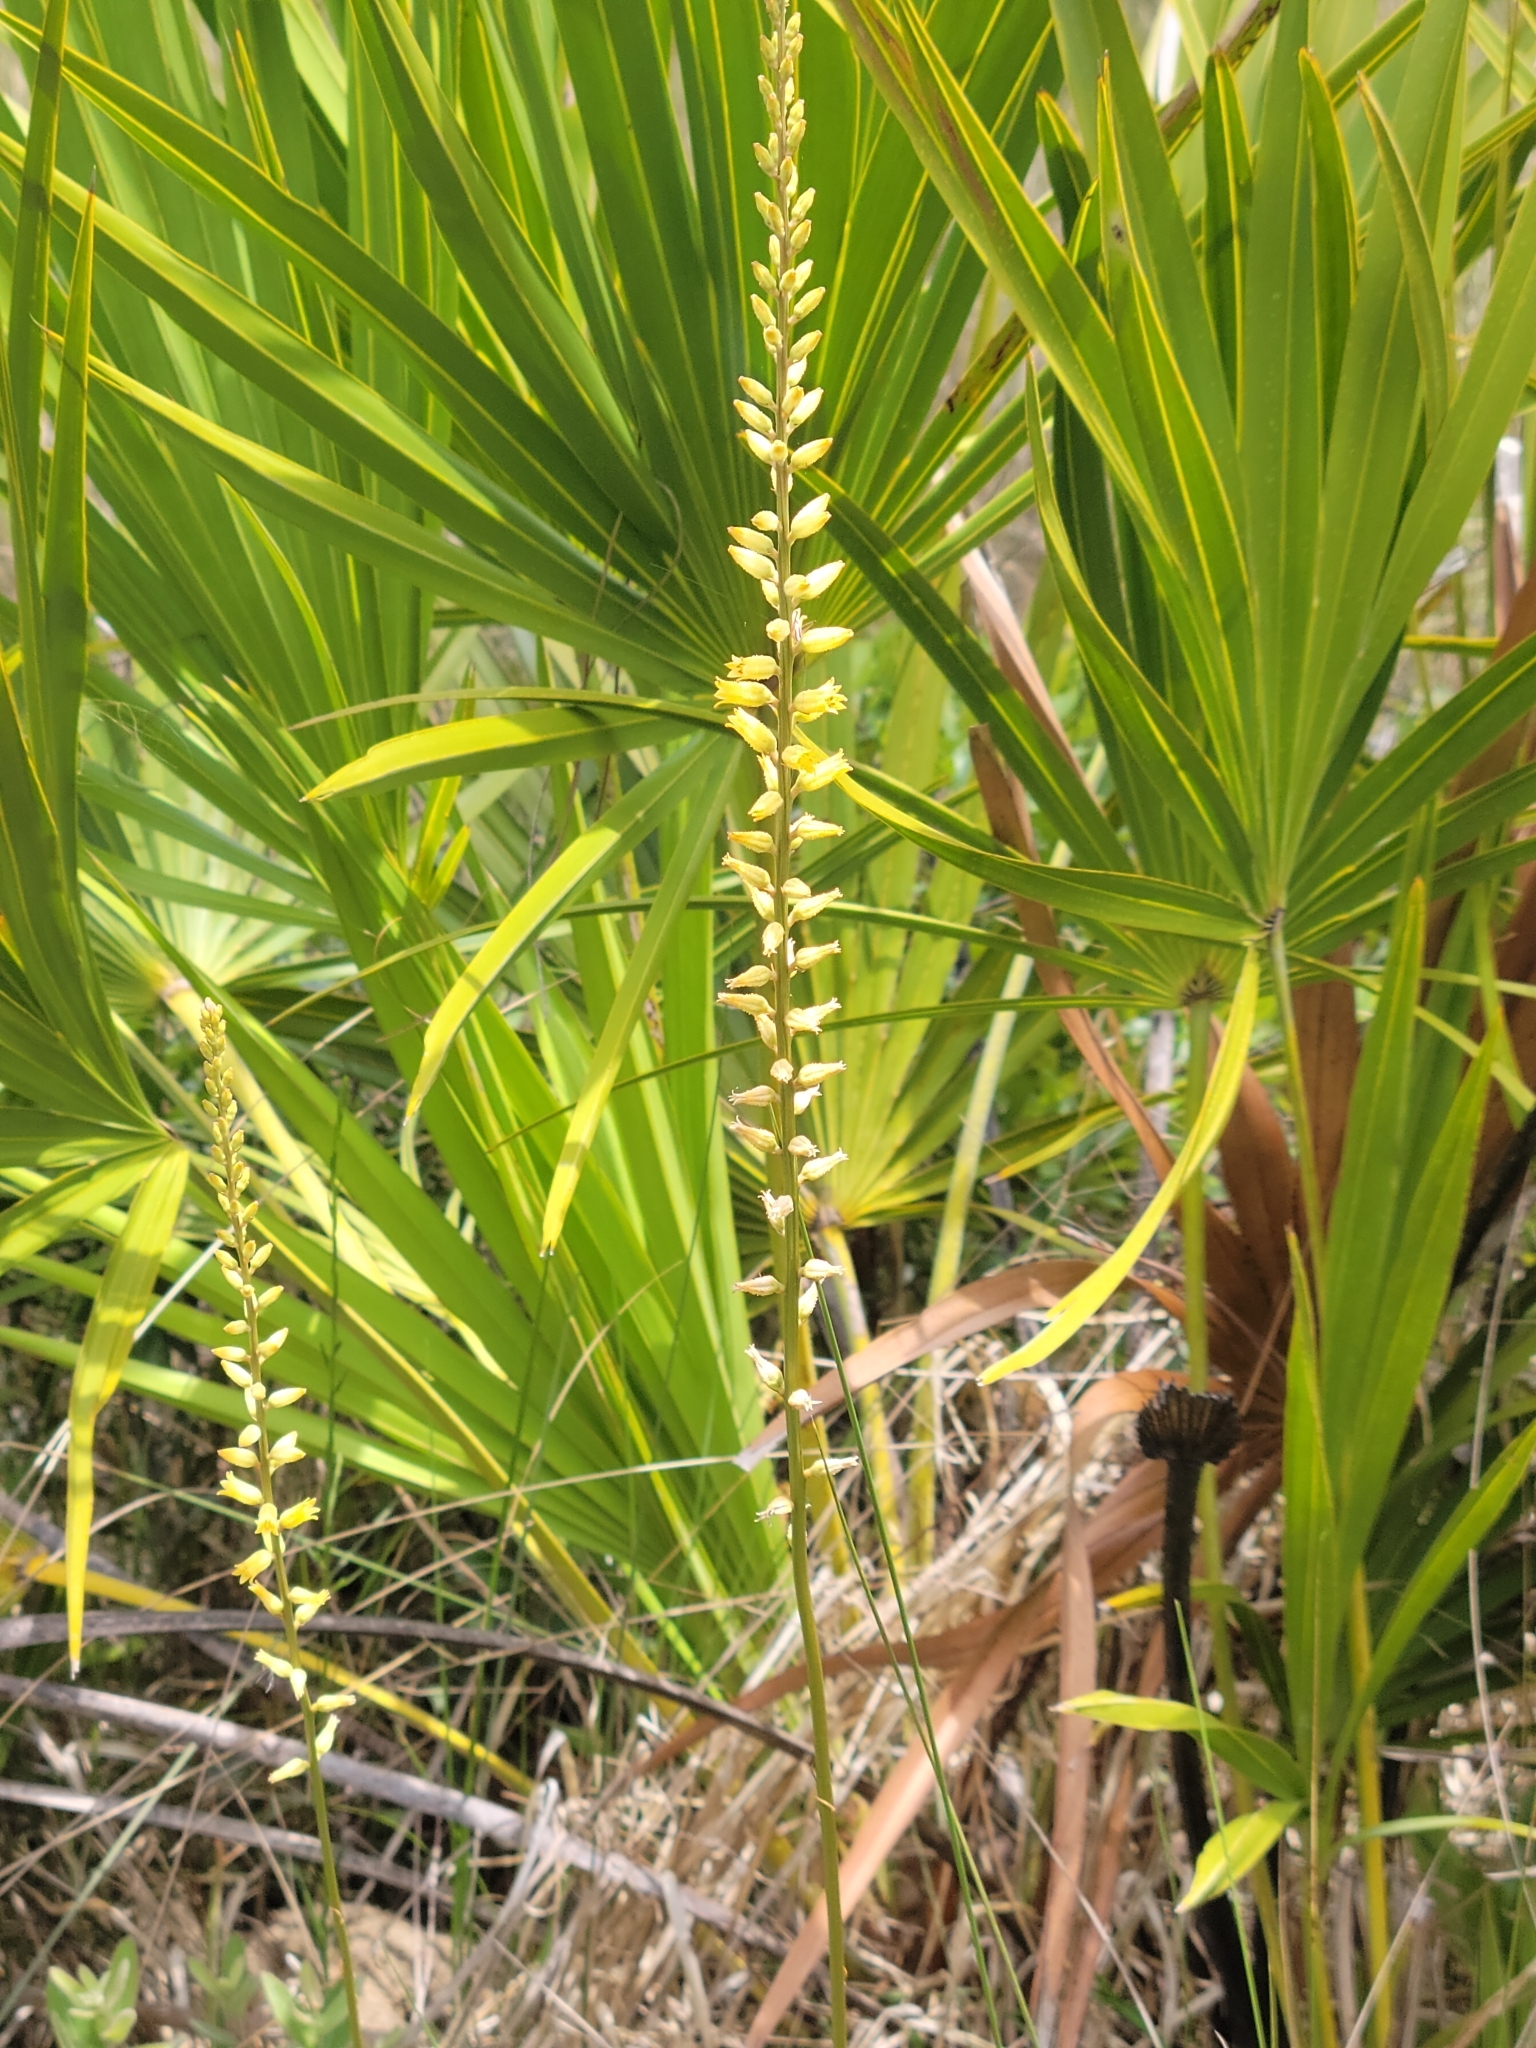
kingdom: Plantae
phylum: Tracheophyta
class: Liliopsida
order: Dioscoreales
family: Nartheciaceae
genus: Aletris
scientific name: Aletris lutea
